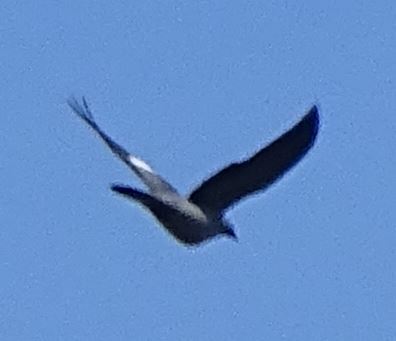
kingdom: Animalia
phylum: Chordata
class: Aves
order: Columbiformes
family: Columbidae
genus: Columba
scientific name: Columba palumbus
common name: Common wood pigeon
